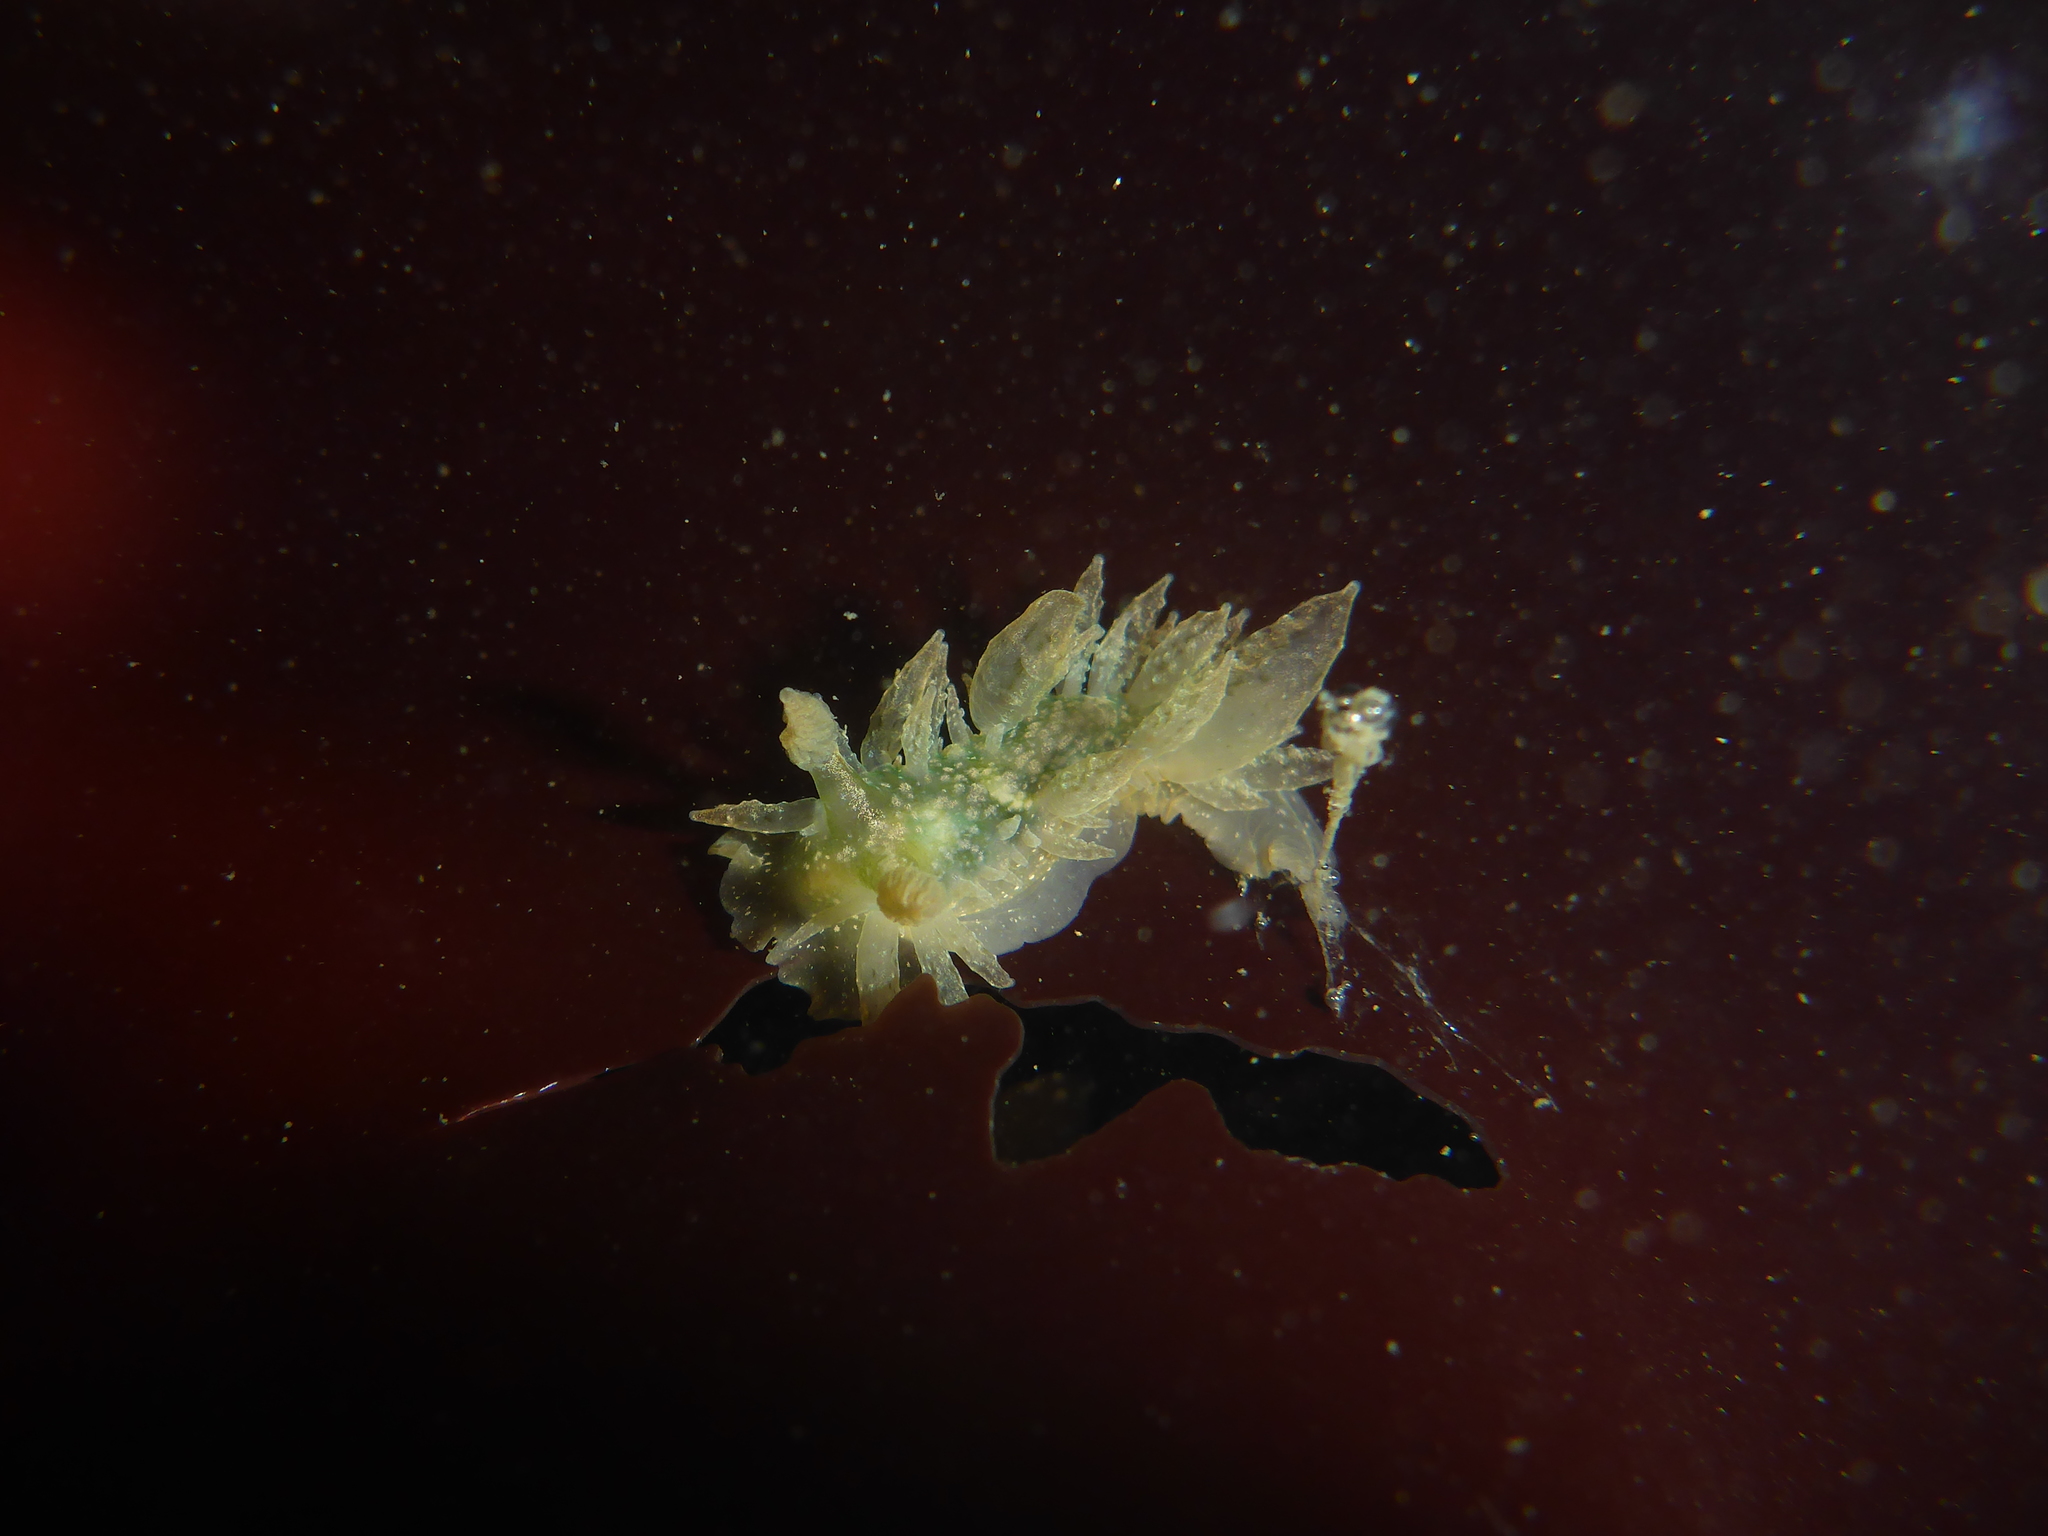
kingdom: Animalia
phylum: Mollusca
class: Gastropoda
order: Nudibranchia
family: Dironidae
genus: Dirona
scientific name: Dirona picta
